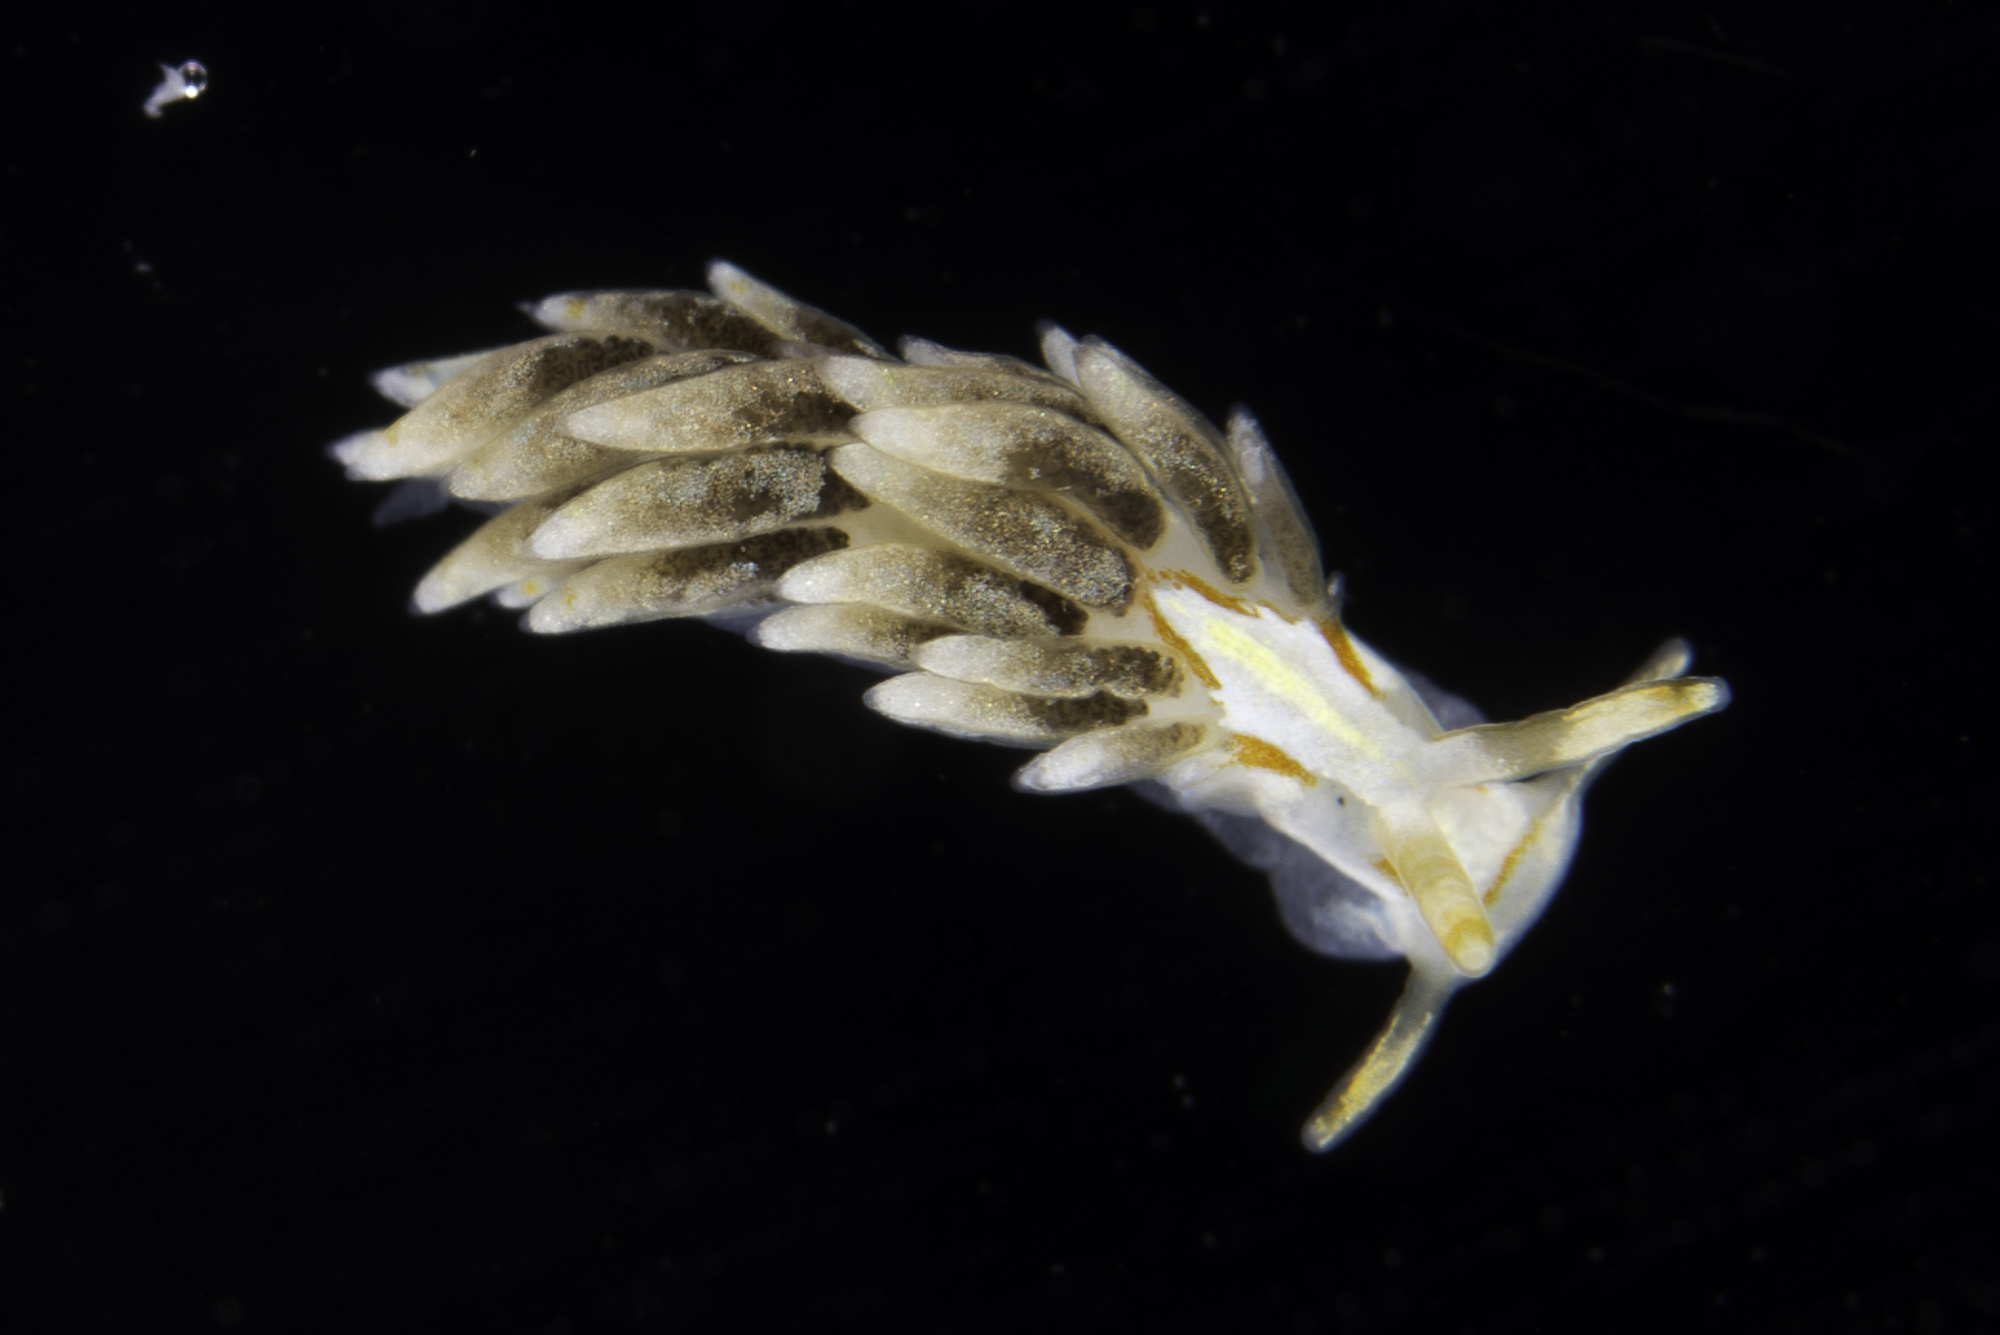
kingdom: Animalia
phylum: Mollusca
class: Gastropoda
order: Nudibranchia
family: Trinchesiidae
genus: Trinchesia
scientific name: Trinchesia genovae
